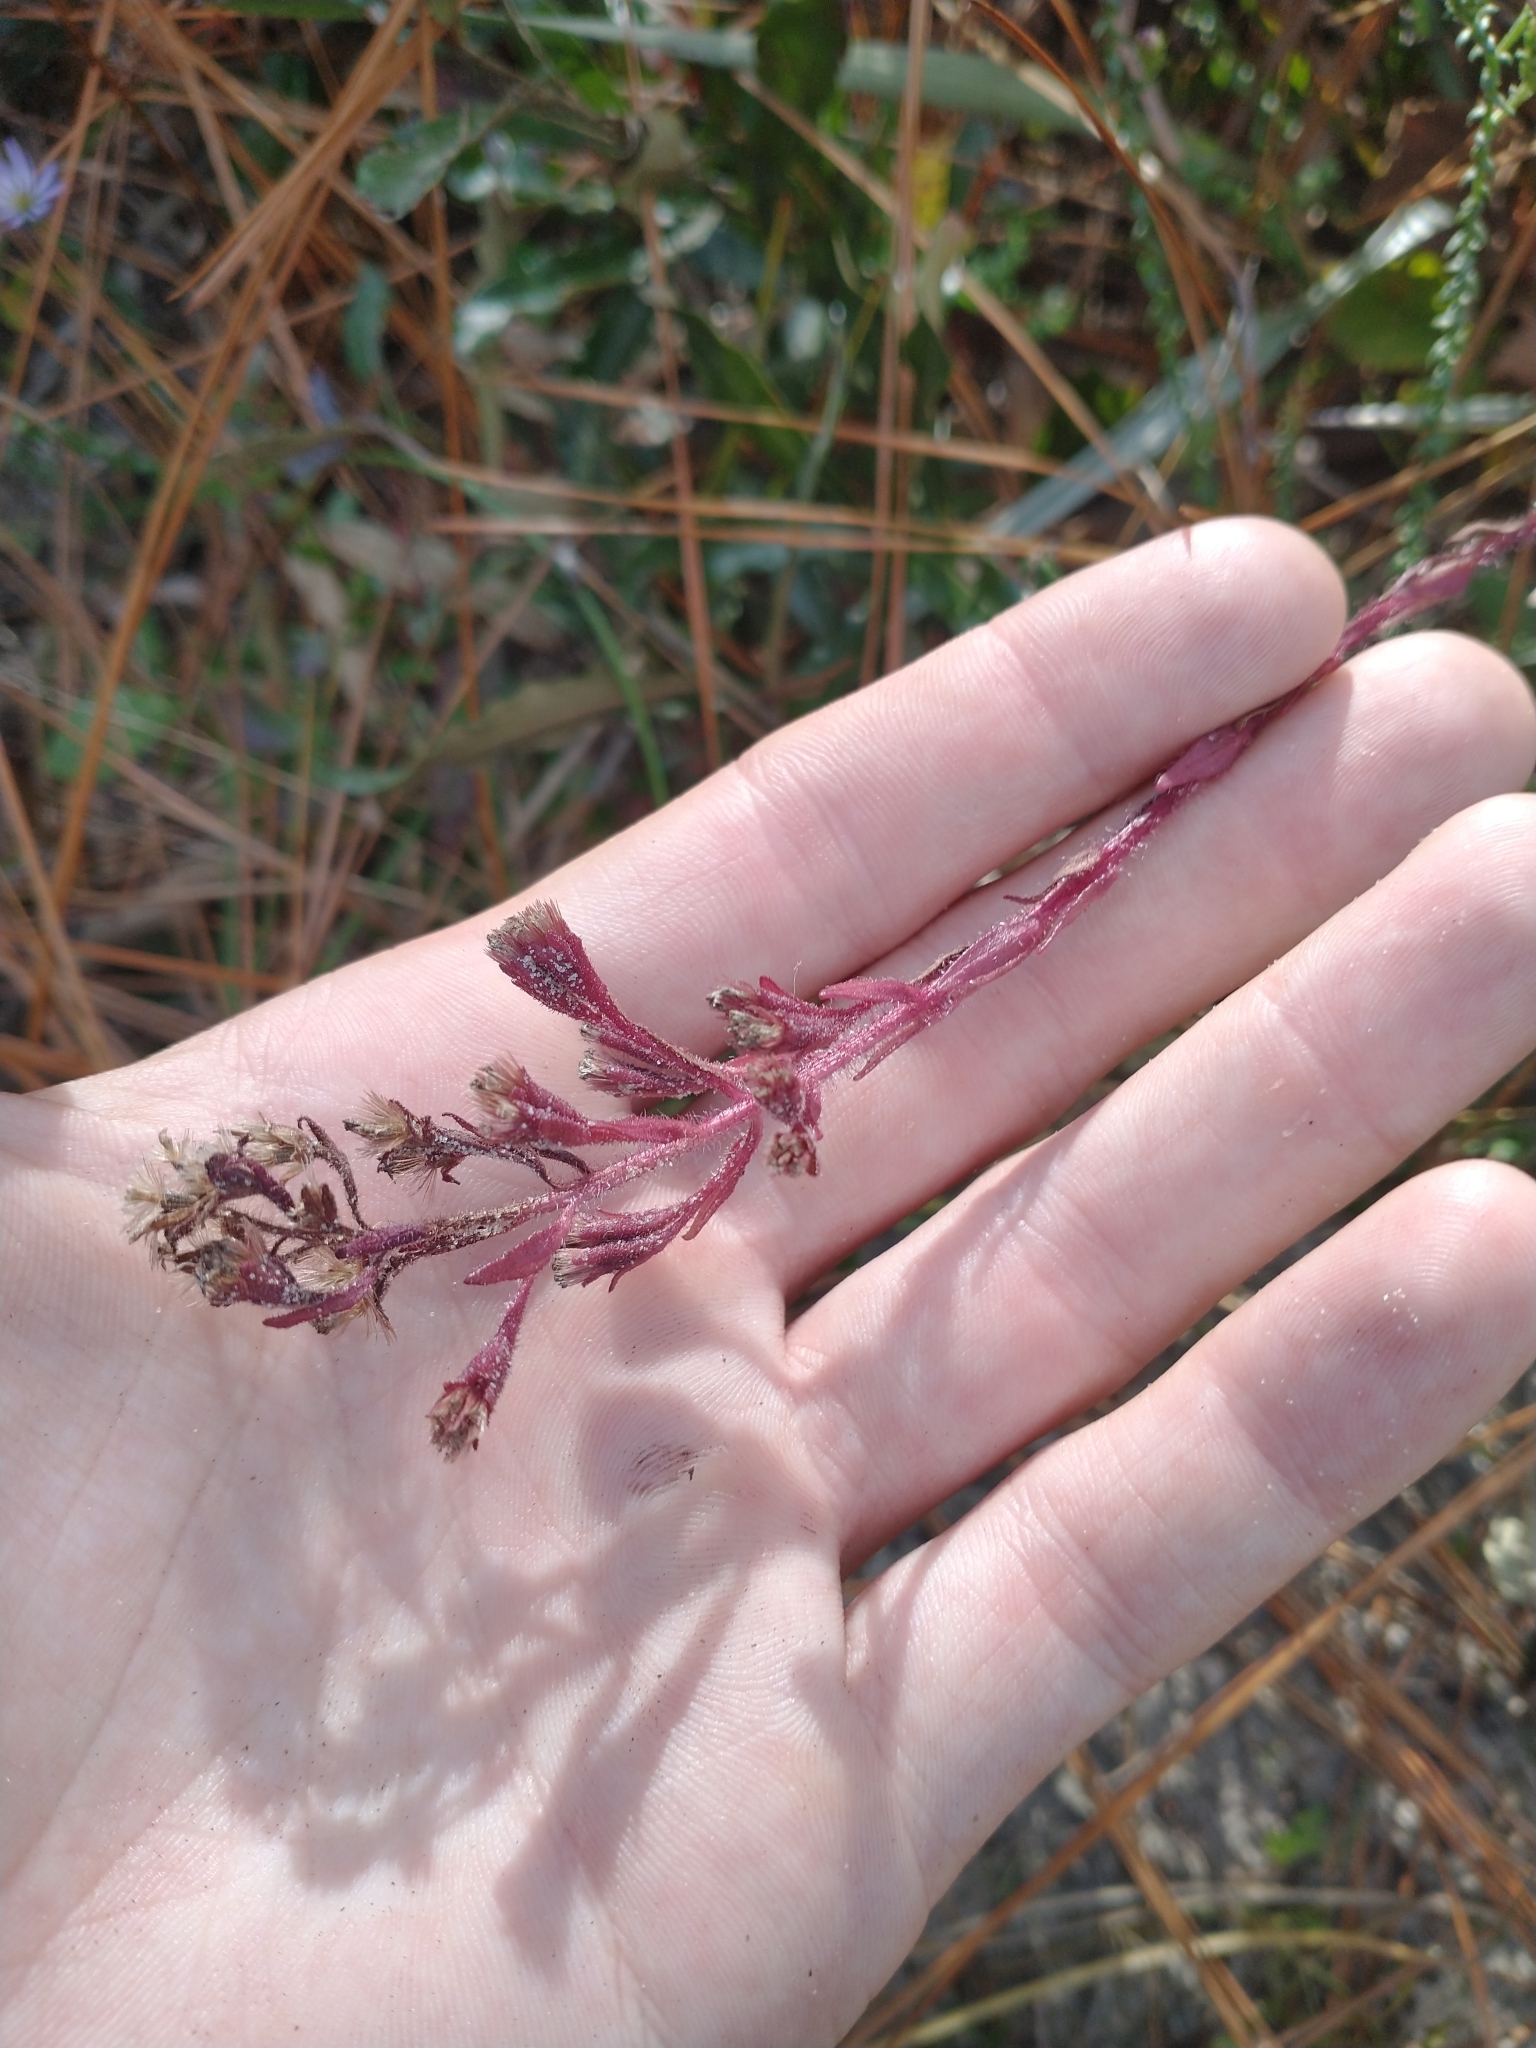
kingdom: Plantae
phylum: Tracheophyta
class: Magnoliopsida
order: Asterales
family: Asteraceae
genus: Carphephorus
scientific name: Carphephorus paniculatus
